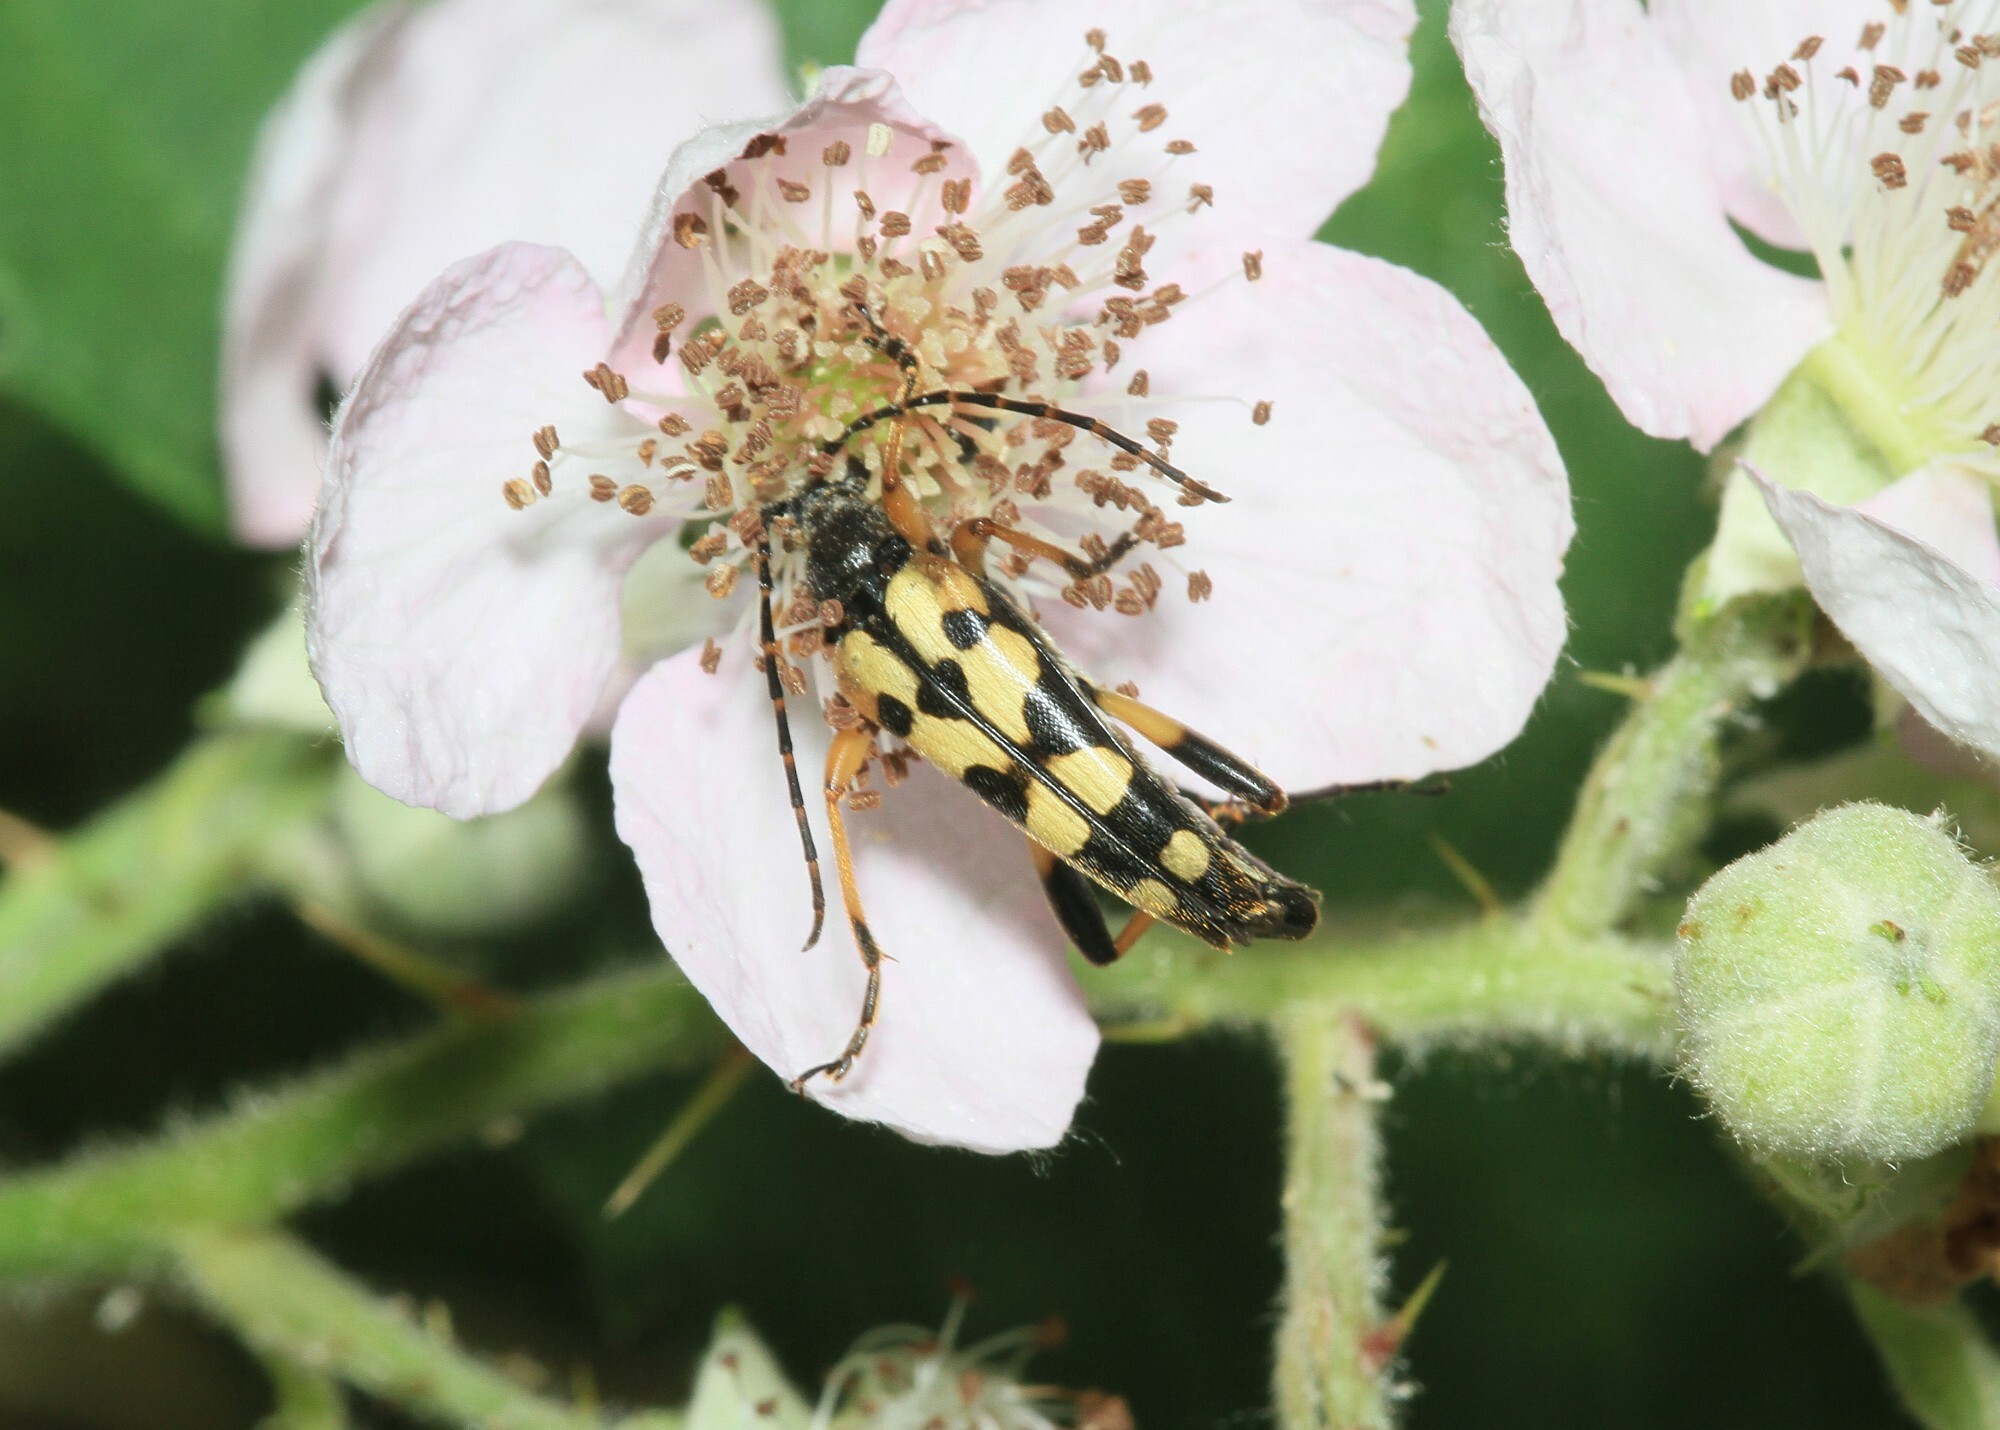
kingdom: Animalia
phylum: Arthropoda
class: Insecta
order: Coleoptera
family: Cerambycidae
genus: Rutpela
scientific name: Rutpela maculata
